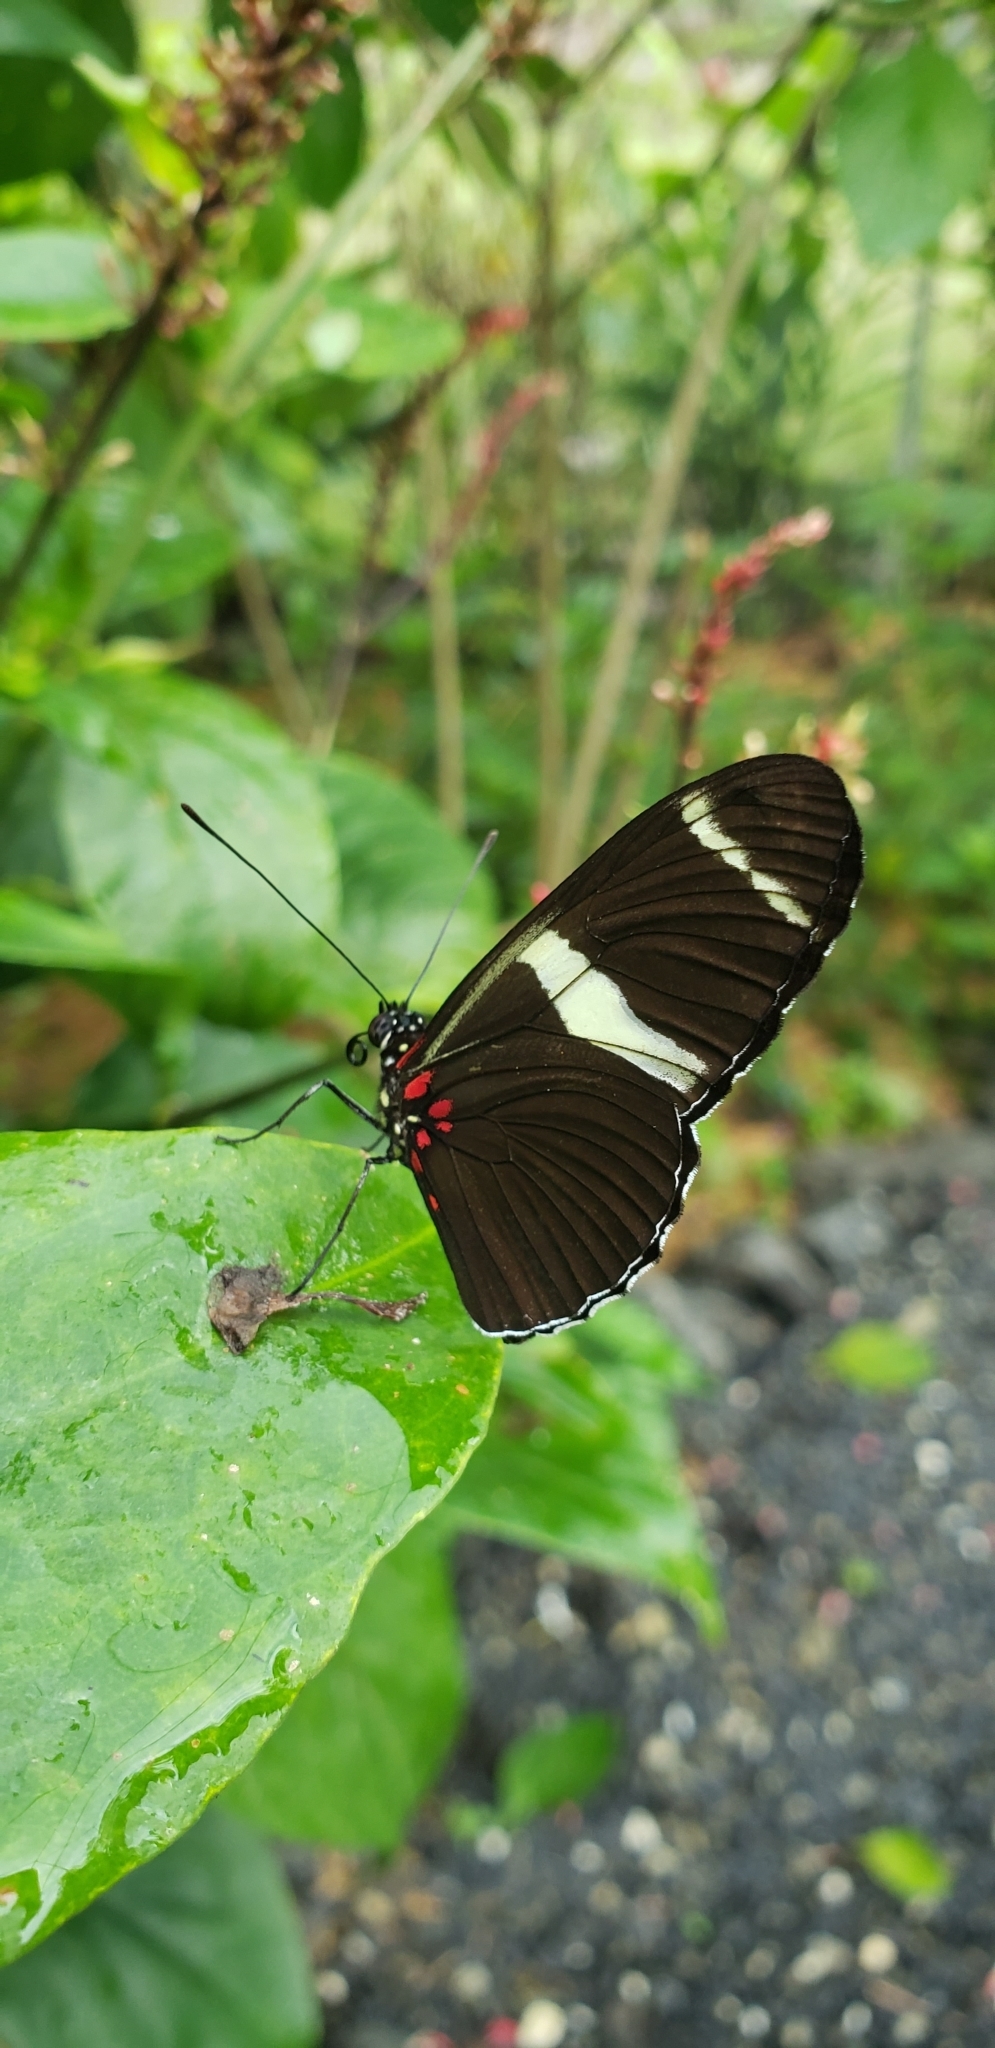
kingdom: Animalia
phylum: Arthropoda
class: Insecta
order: Lepidoptera
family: Nymphalidae
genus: Heliconius
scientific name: Heliconius sara
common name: Sara longwing
